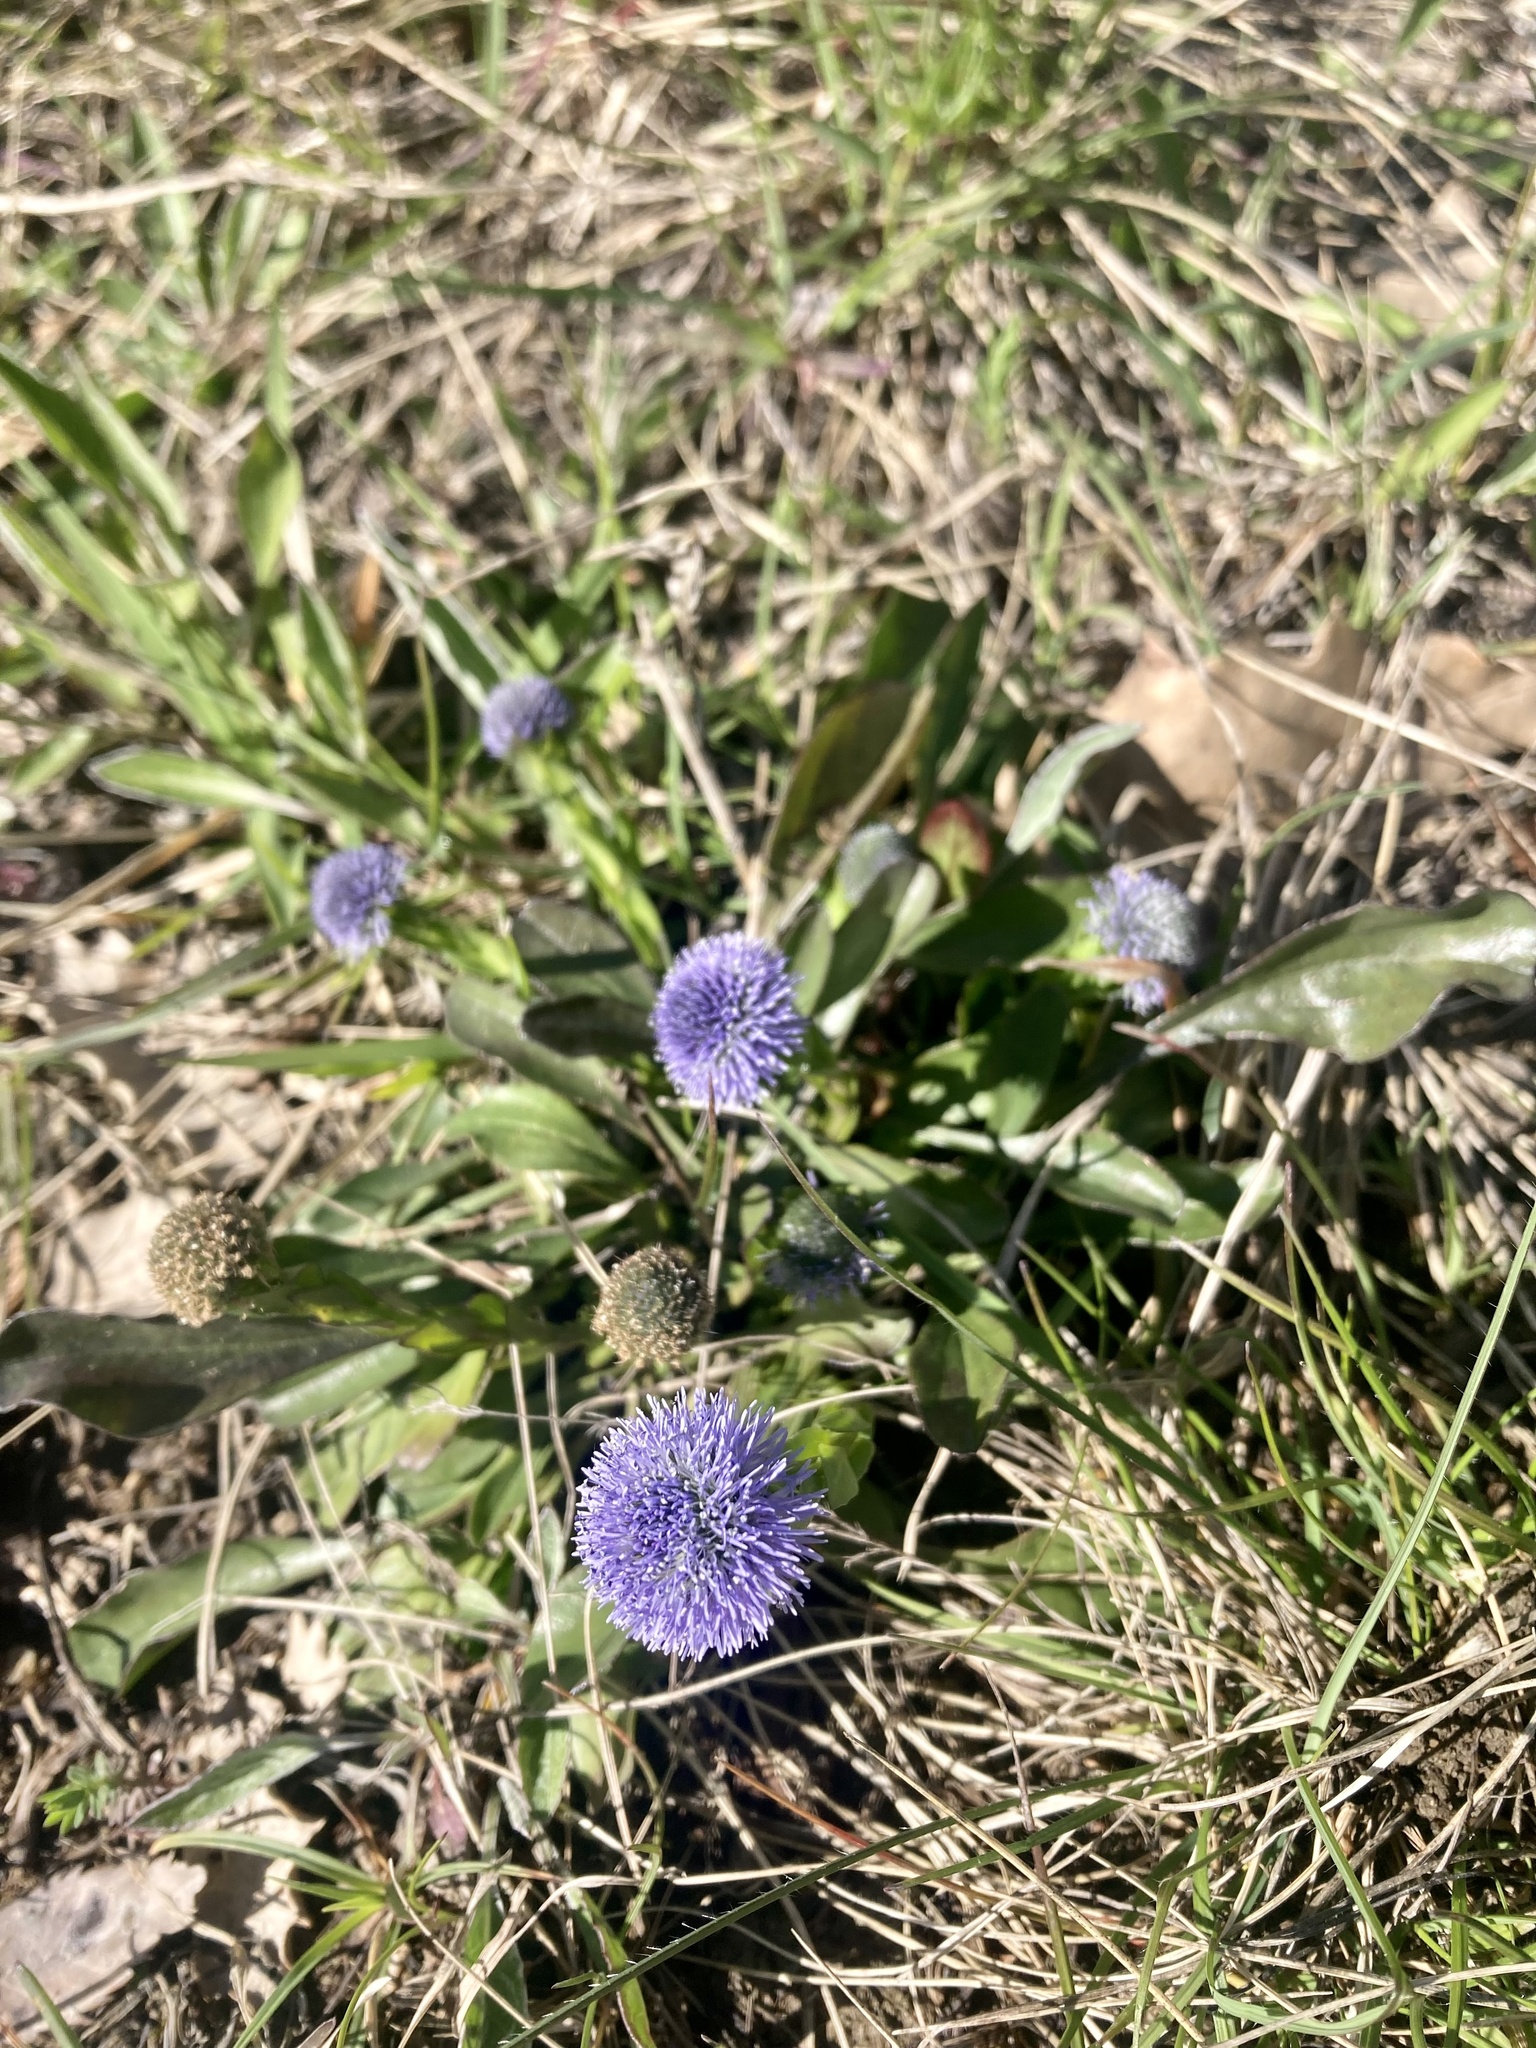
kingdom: Plantae
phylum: Tracheophyta
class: Magnoliopsida
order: Lamiales
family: Plantaginaceae
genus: Globularia
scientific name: Globularia bisnagarica
